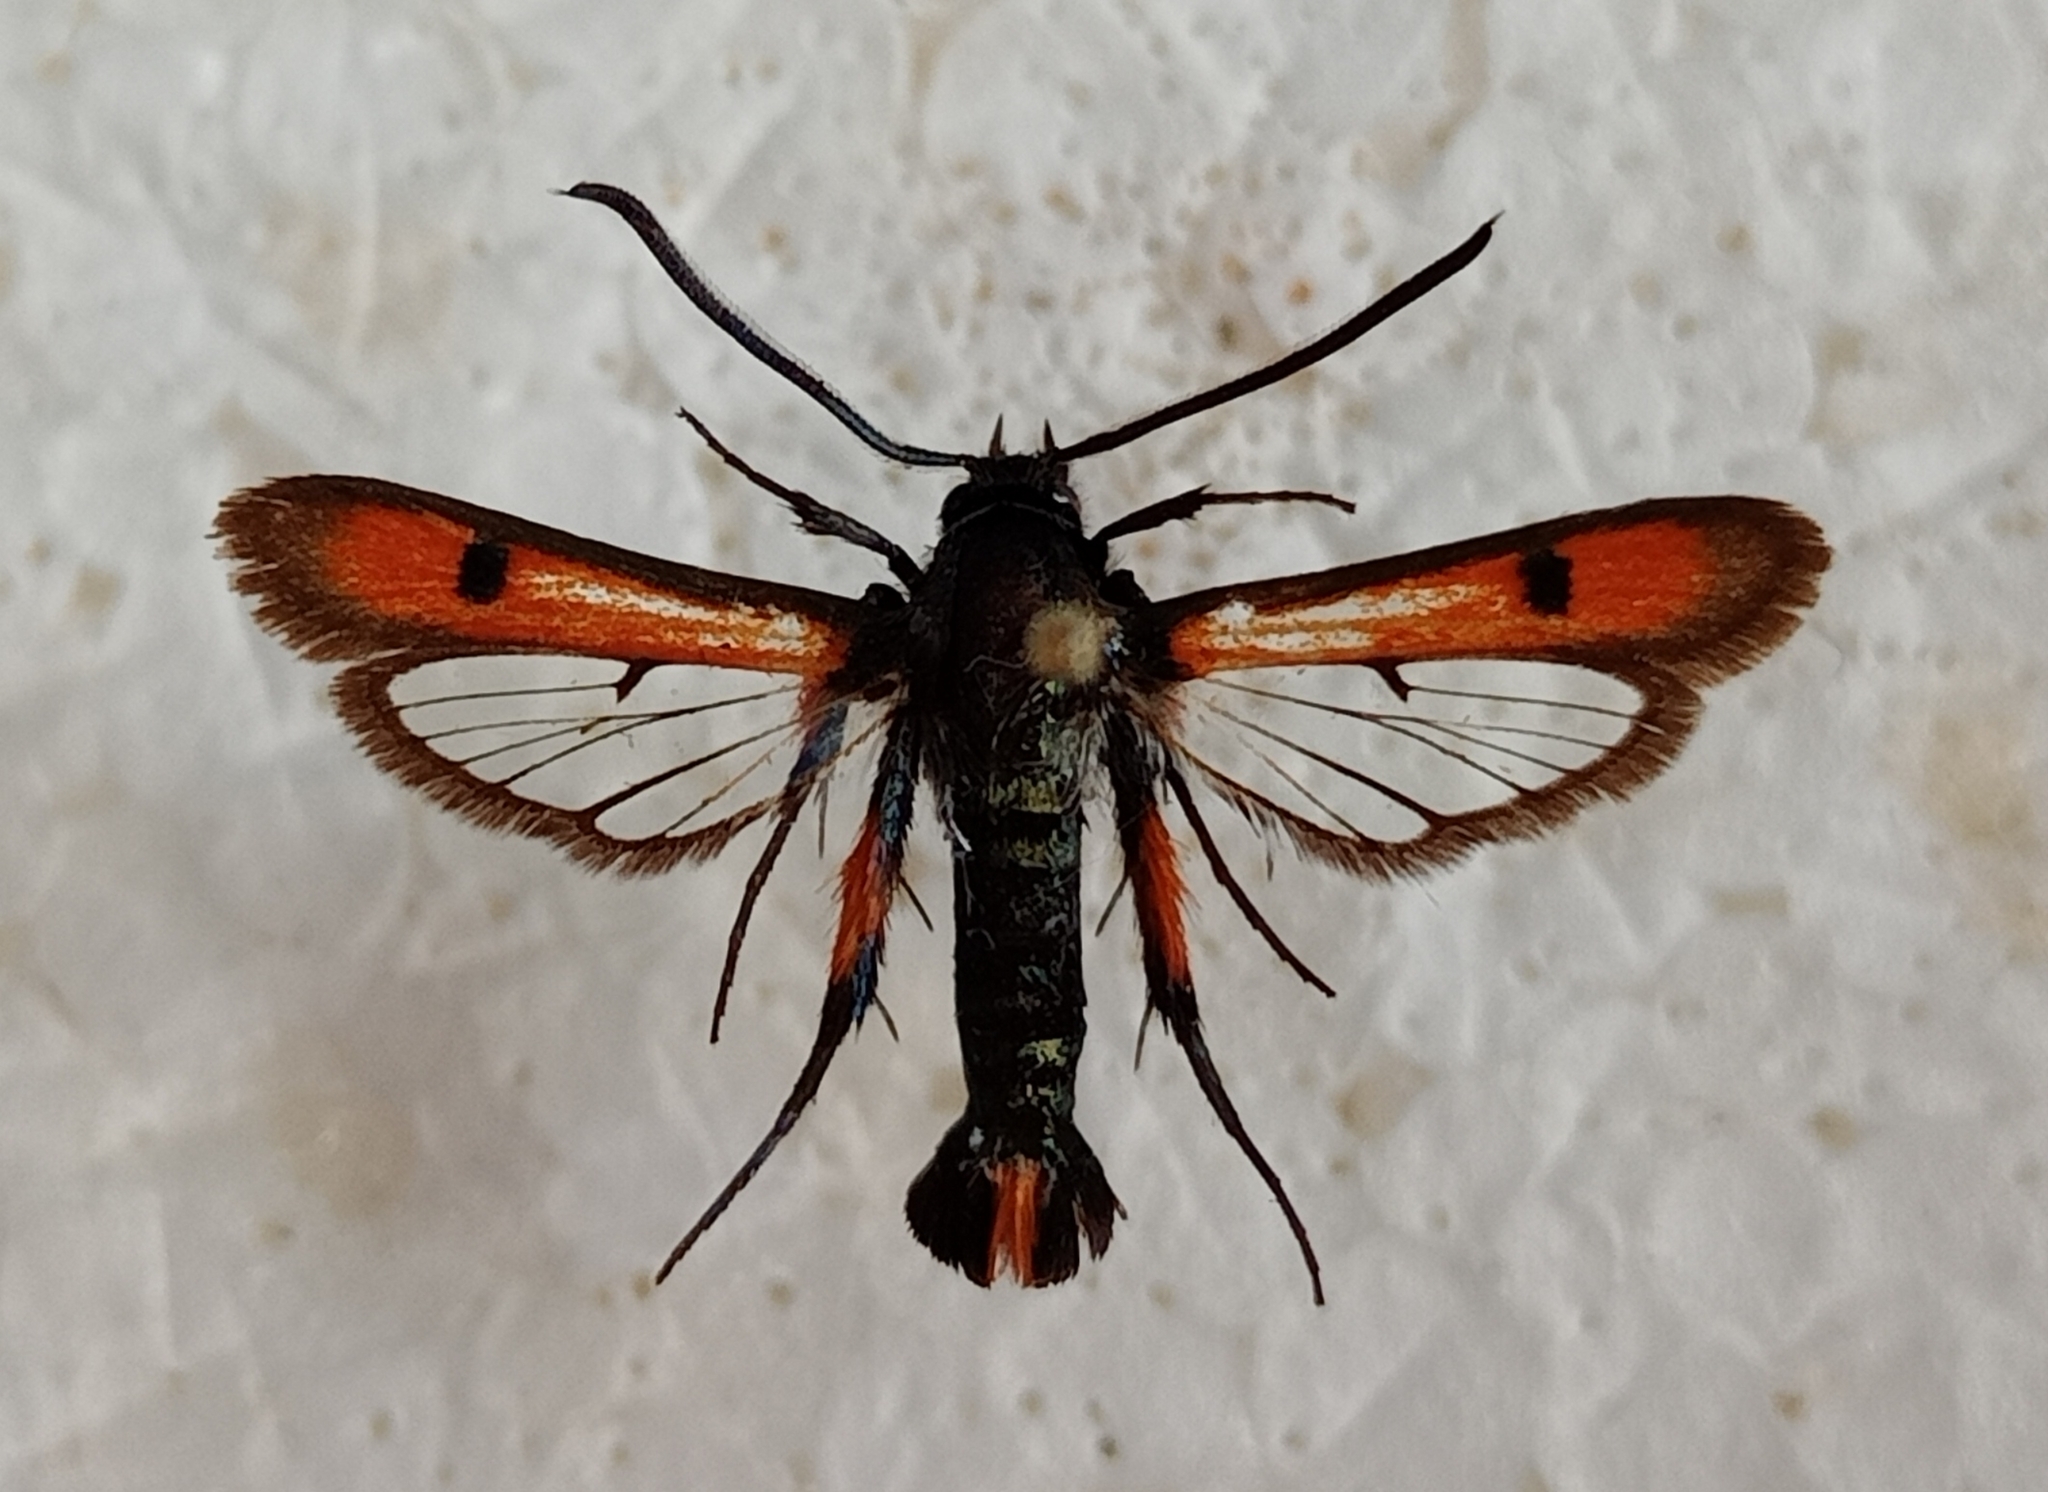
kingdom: Animalia
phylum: Arthropoda
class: Insecta
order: Lepidoptera
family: Sesiidae
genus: Chamaesphecia
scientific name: Chamaesphecia chalciformis
